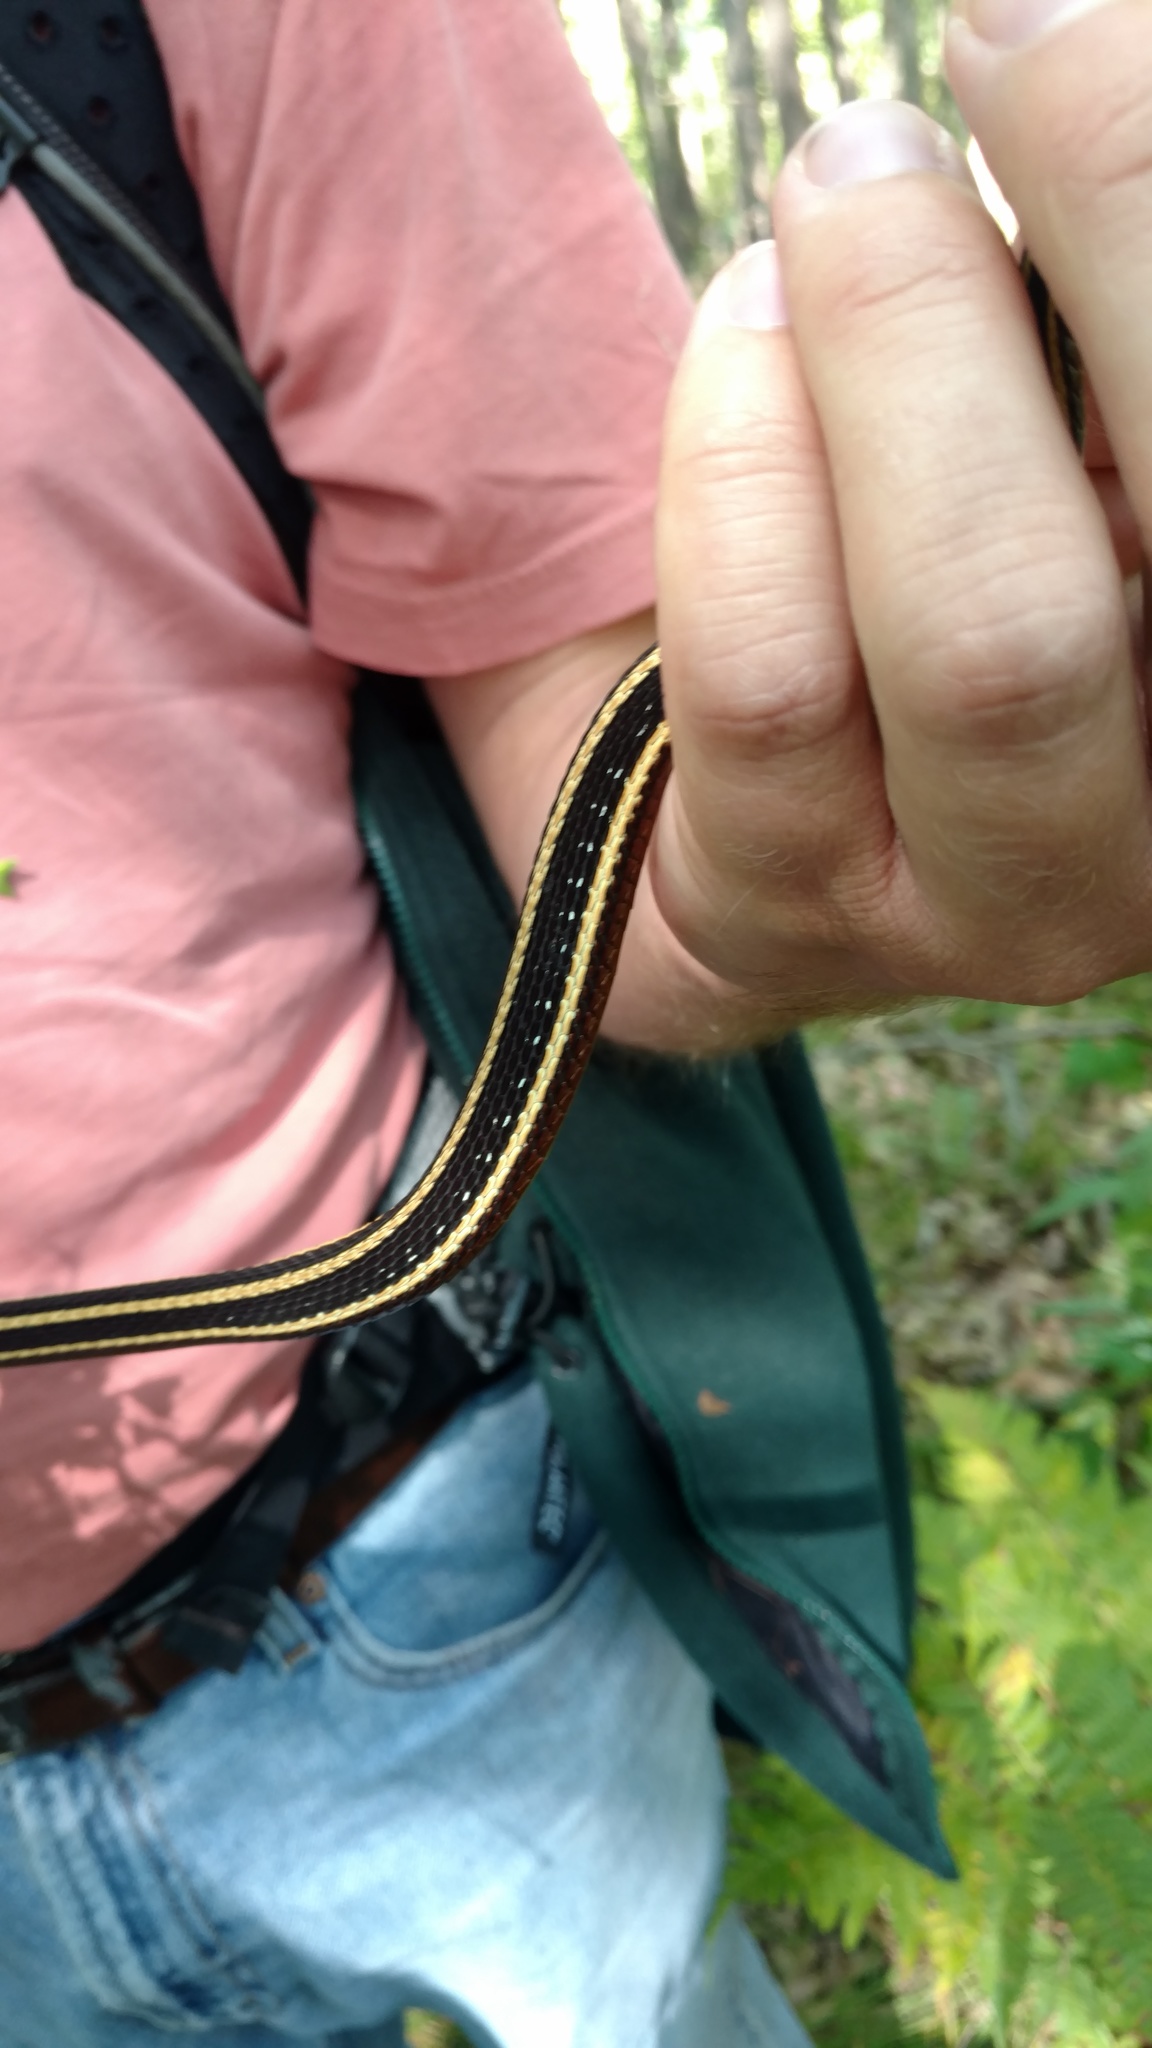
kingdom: Animalia
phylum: Chordata
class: Squamata
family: Colubridae
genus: Thamnophis
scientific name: Thamnophis saurita
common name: Eastern ribbonsnake
